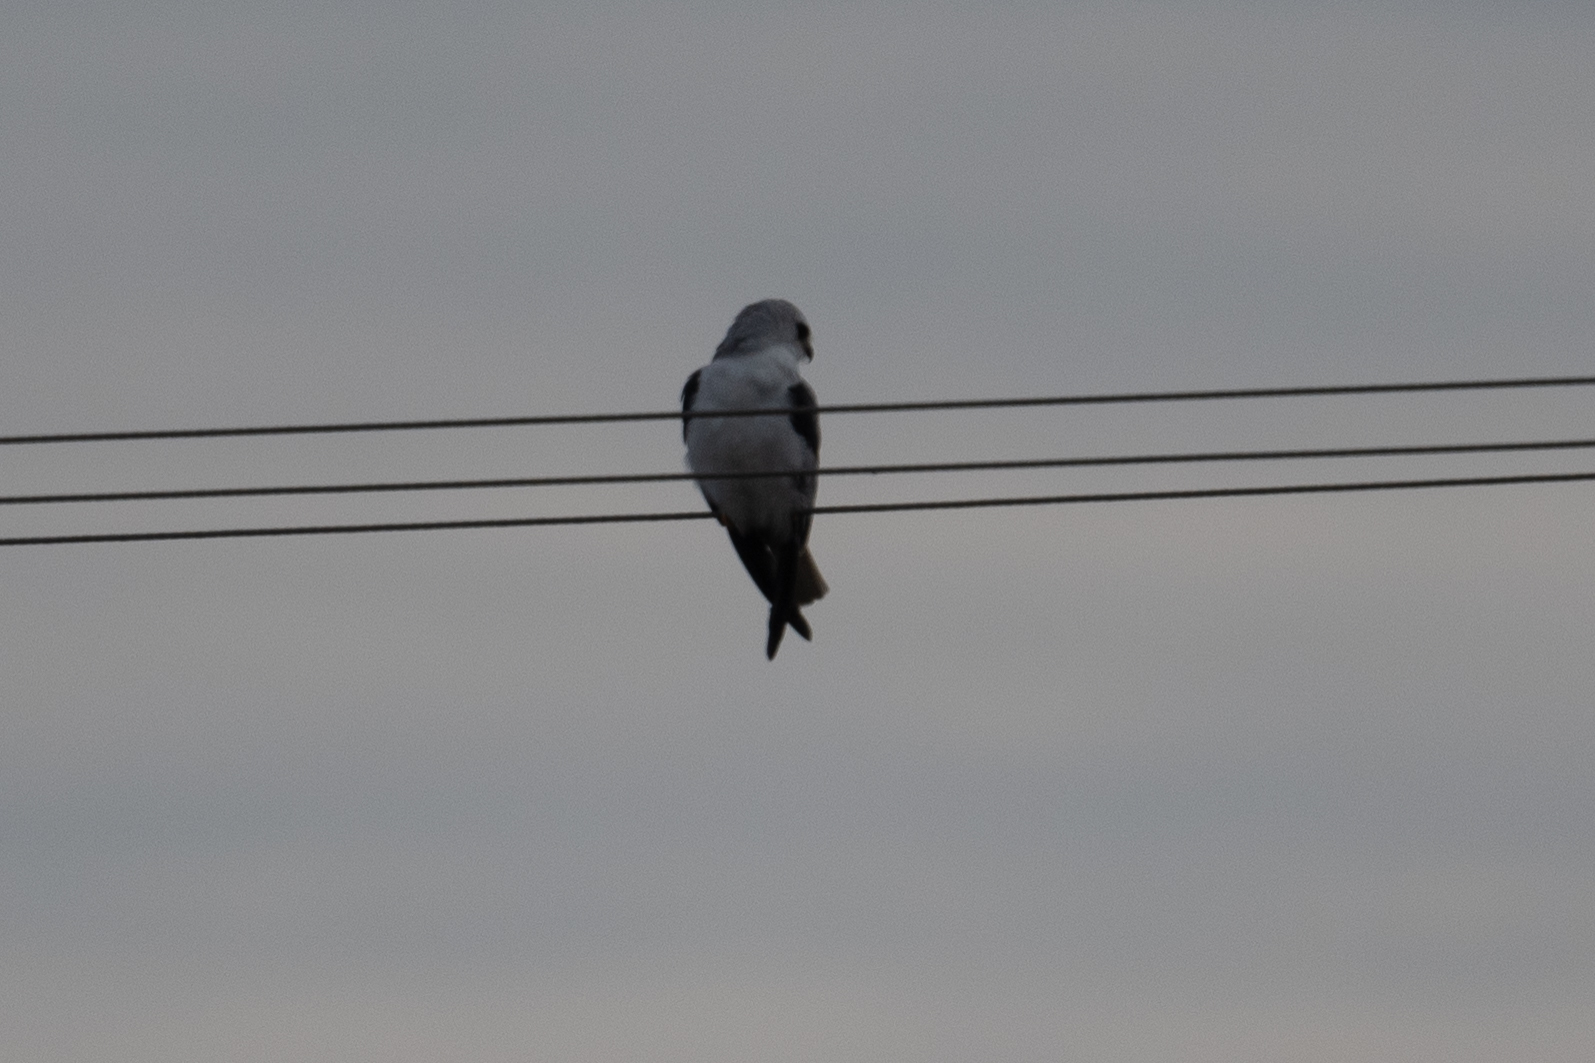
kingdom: Animalia
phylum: Chordata
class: Aves
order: Accipitriformes
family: Accipitridae
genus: Elanus
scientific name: Elanus leucurus
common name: White-tailed kite
